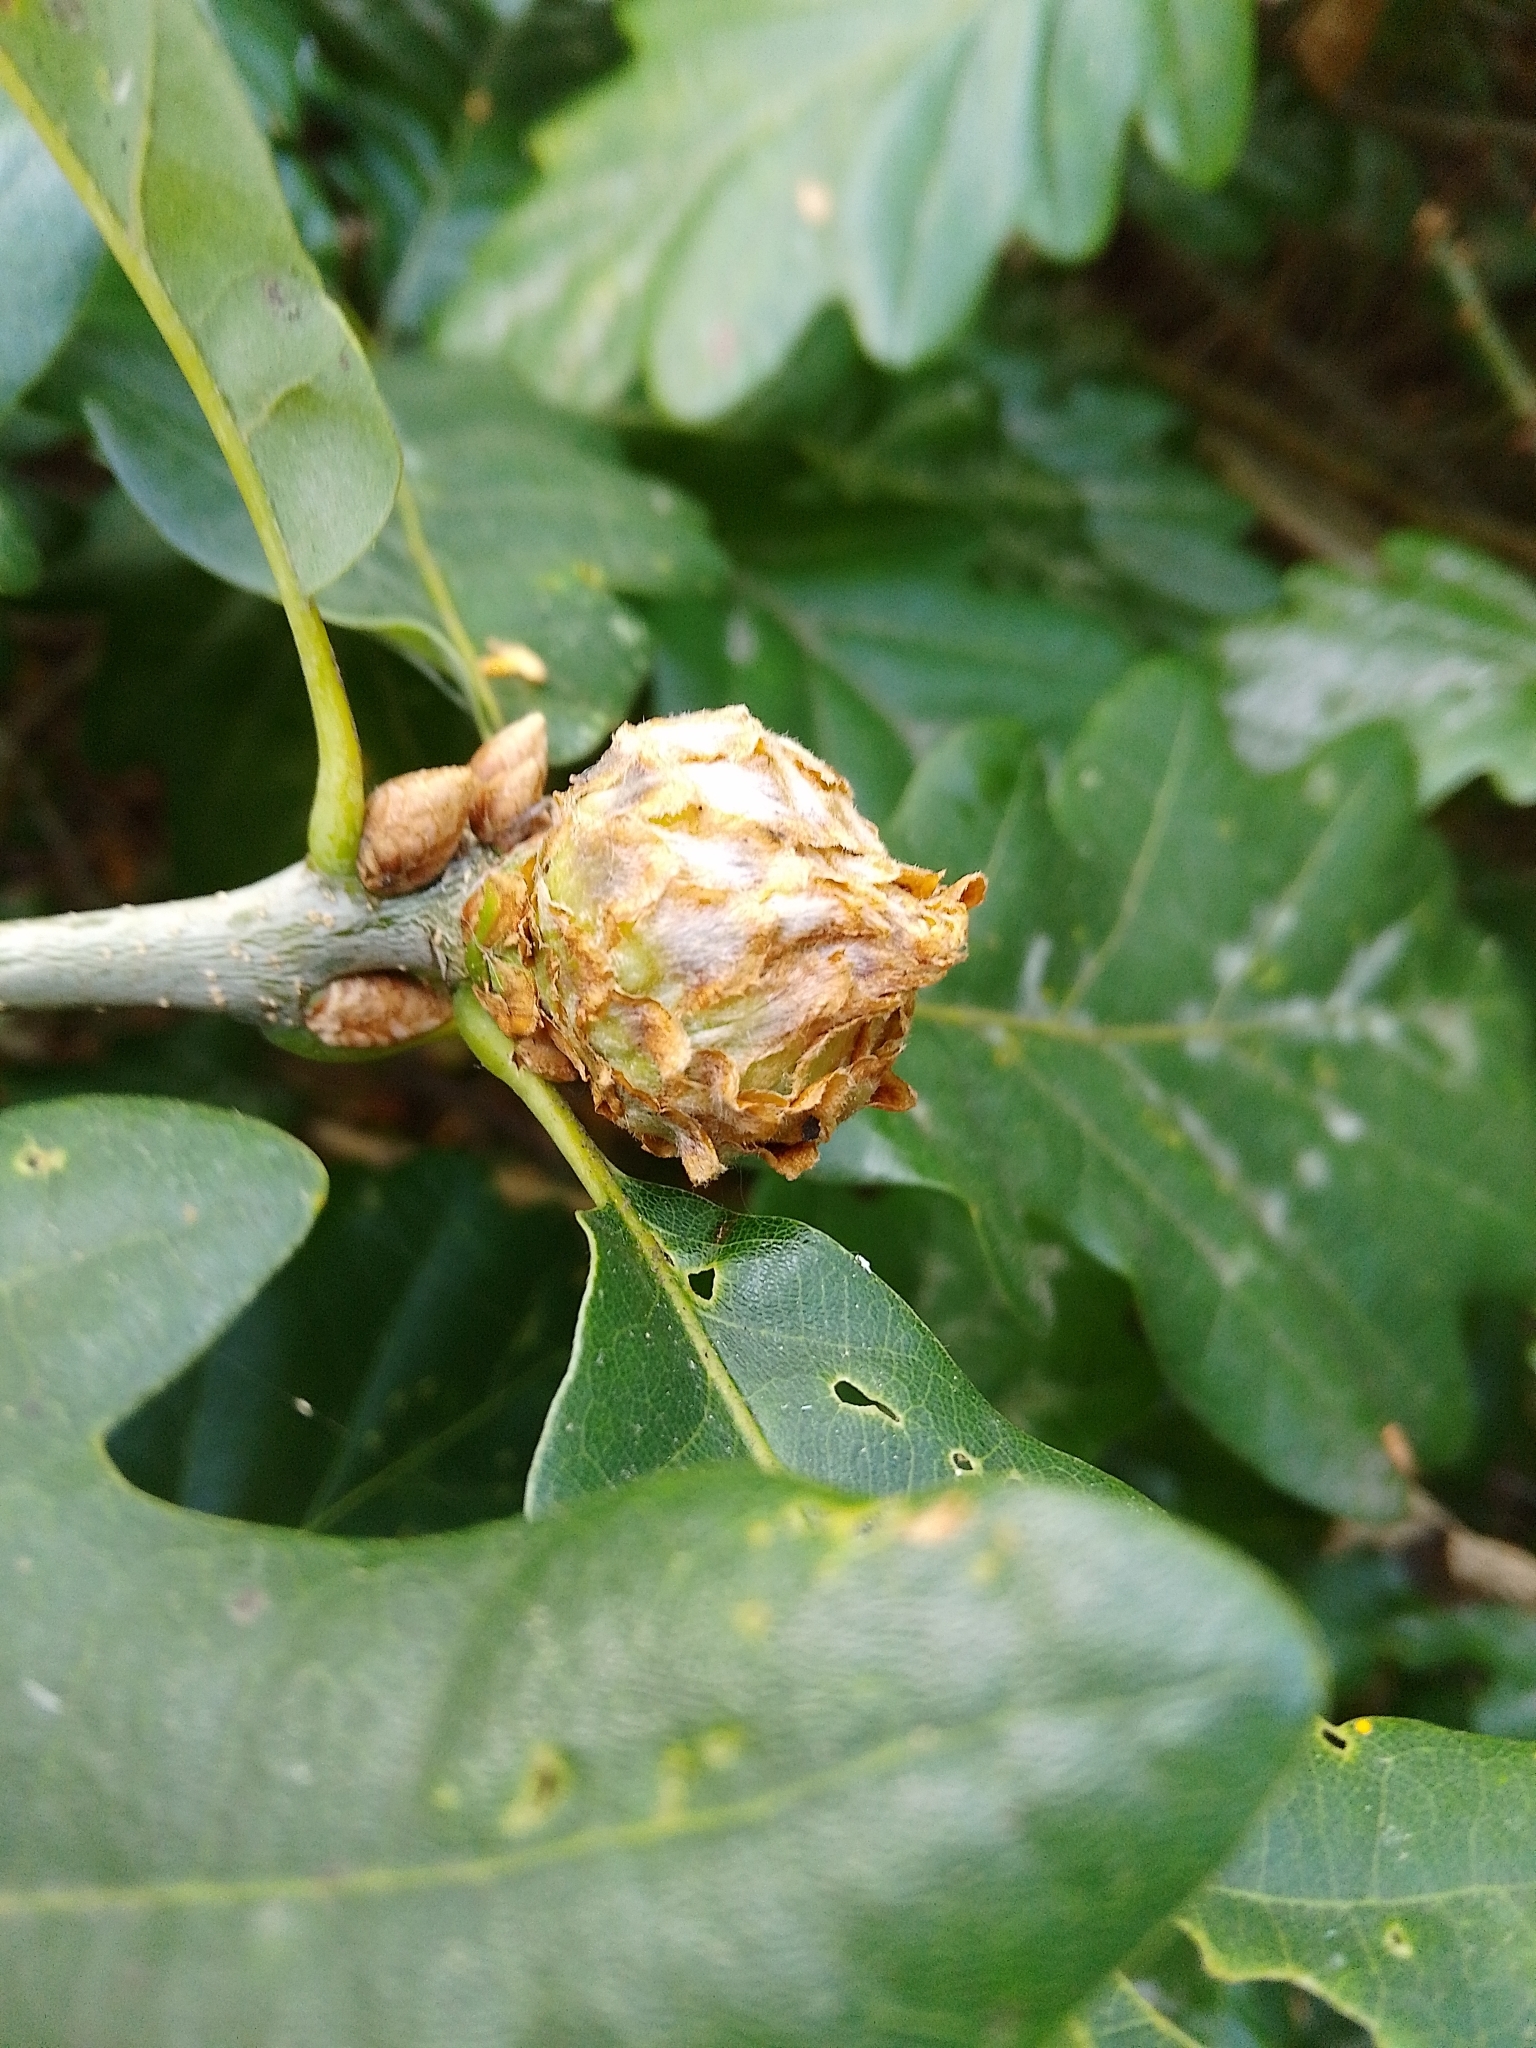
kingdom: Animalia
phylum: Arthropoda
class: Insecta
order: Hymenoptera
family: Cynipidae
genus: Andricus
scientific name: Andricus foecundatrix
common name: Artichoke gall
